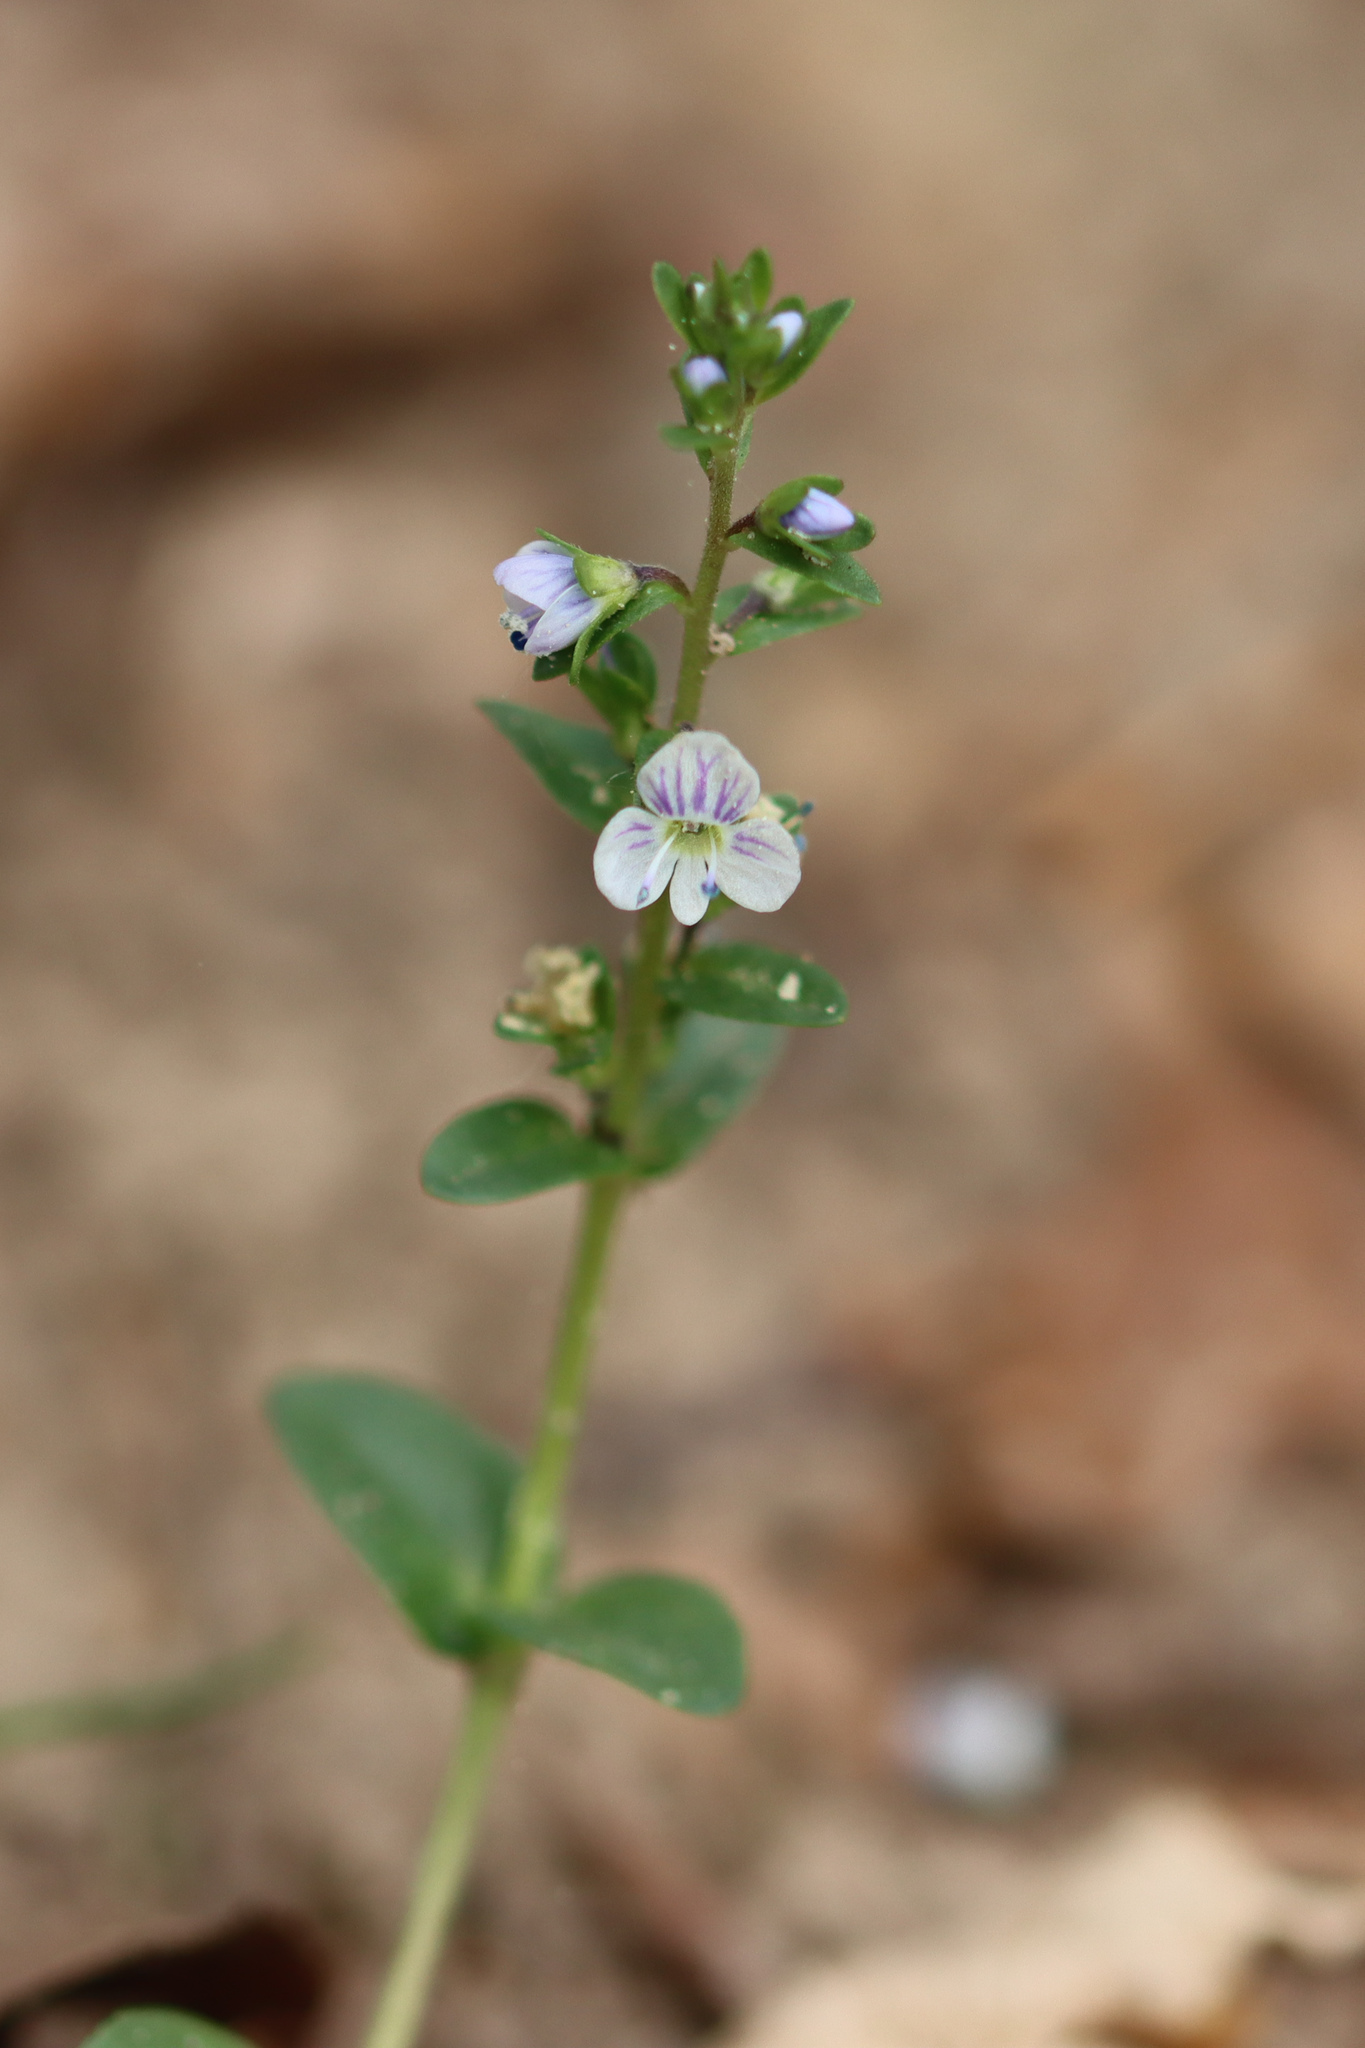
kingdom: Plantae
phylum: Tracheophyta
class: Magnoliopsida
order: Lamiales
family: Plantaginaceae
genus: Veronica
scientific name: Veronica serpyllifolia
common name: Thyme-leaved speedwell
